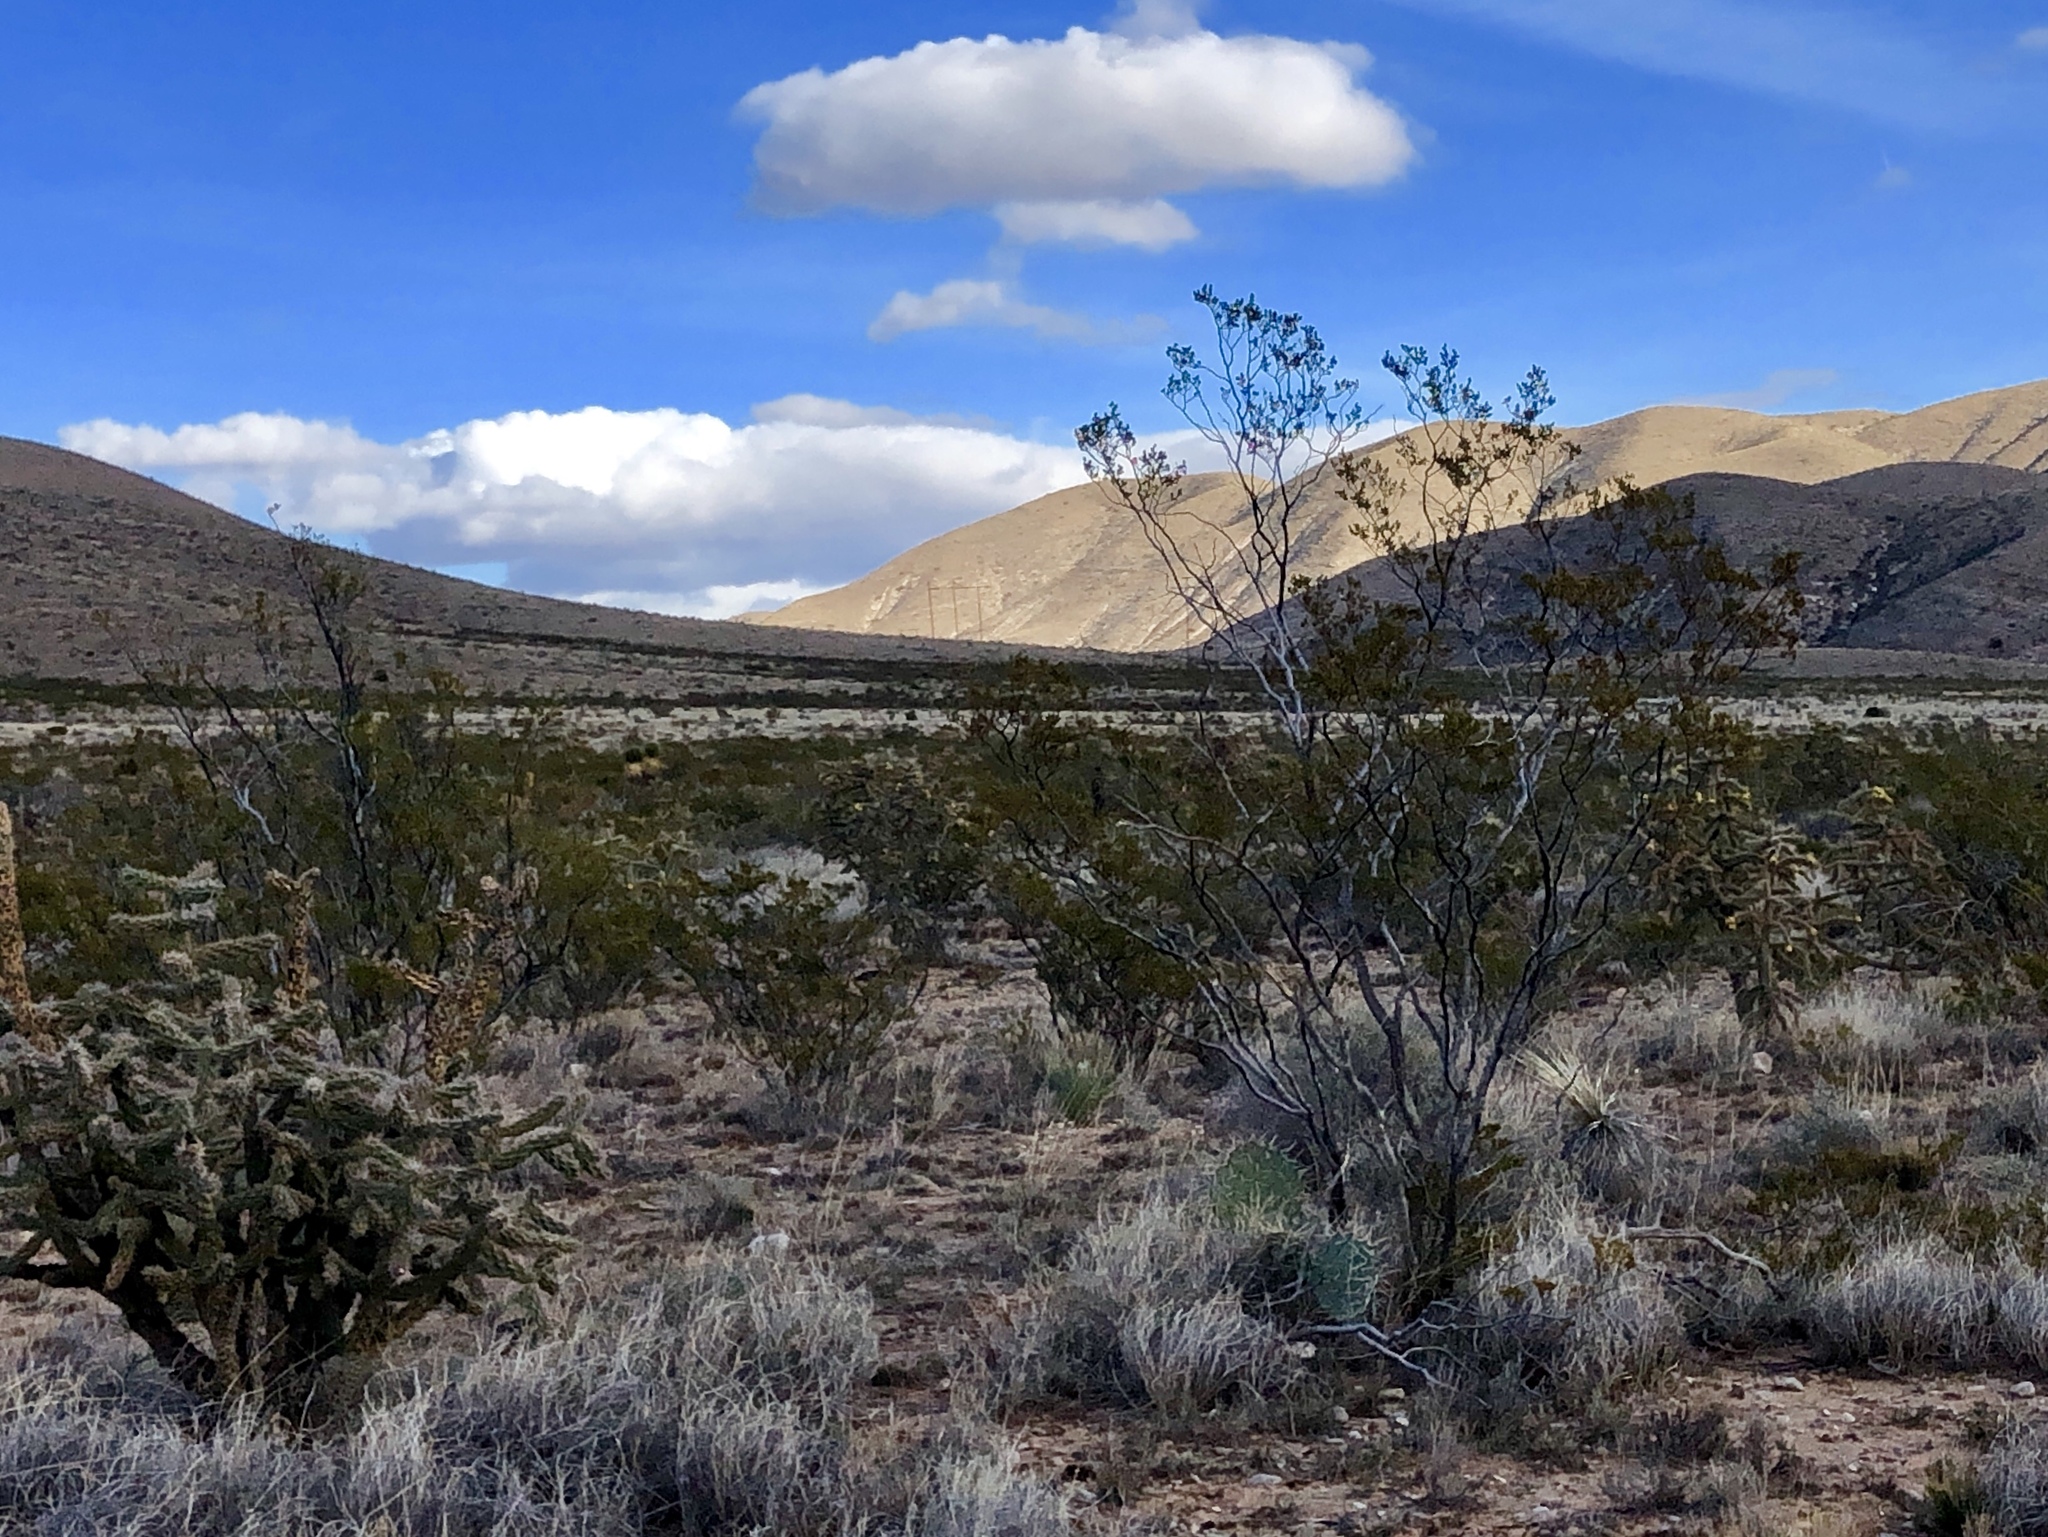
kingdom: Plantae
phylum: Tracheophyta
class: Magnoliopsida
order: Zygophyllales
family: Zygophyllaceae
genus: Larrea
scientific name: Larrea tridentata
